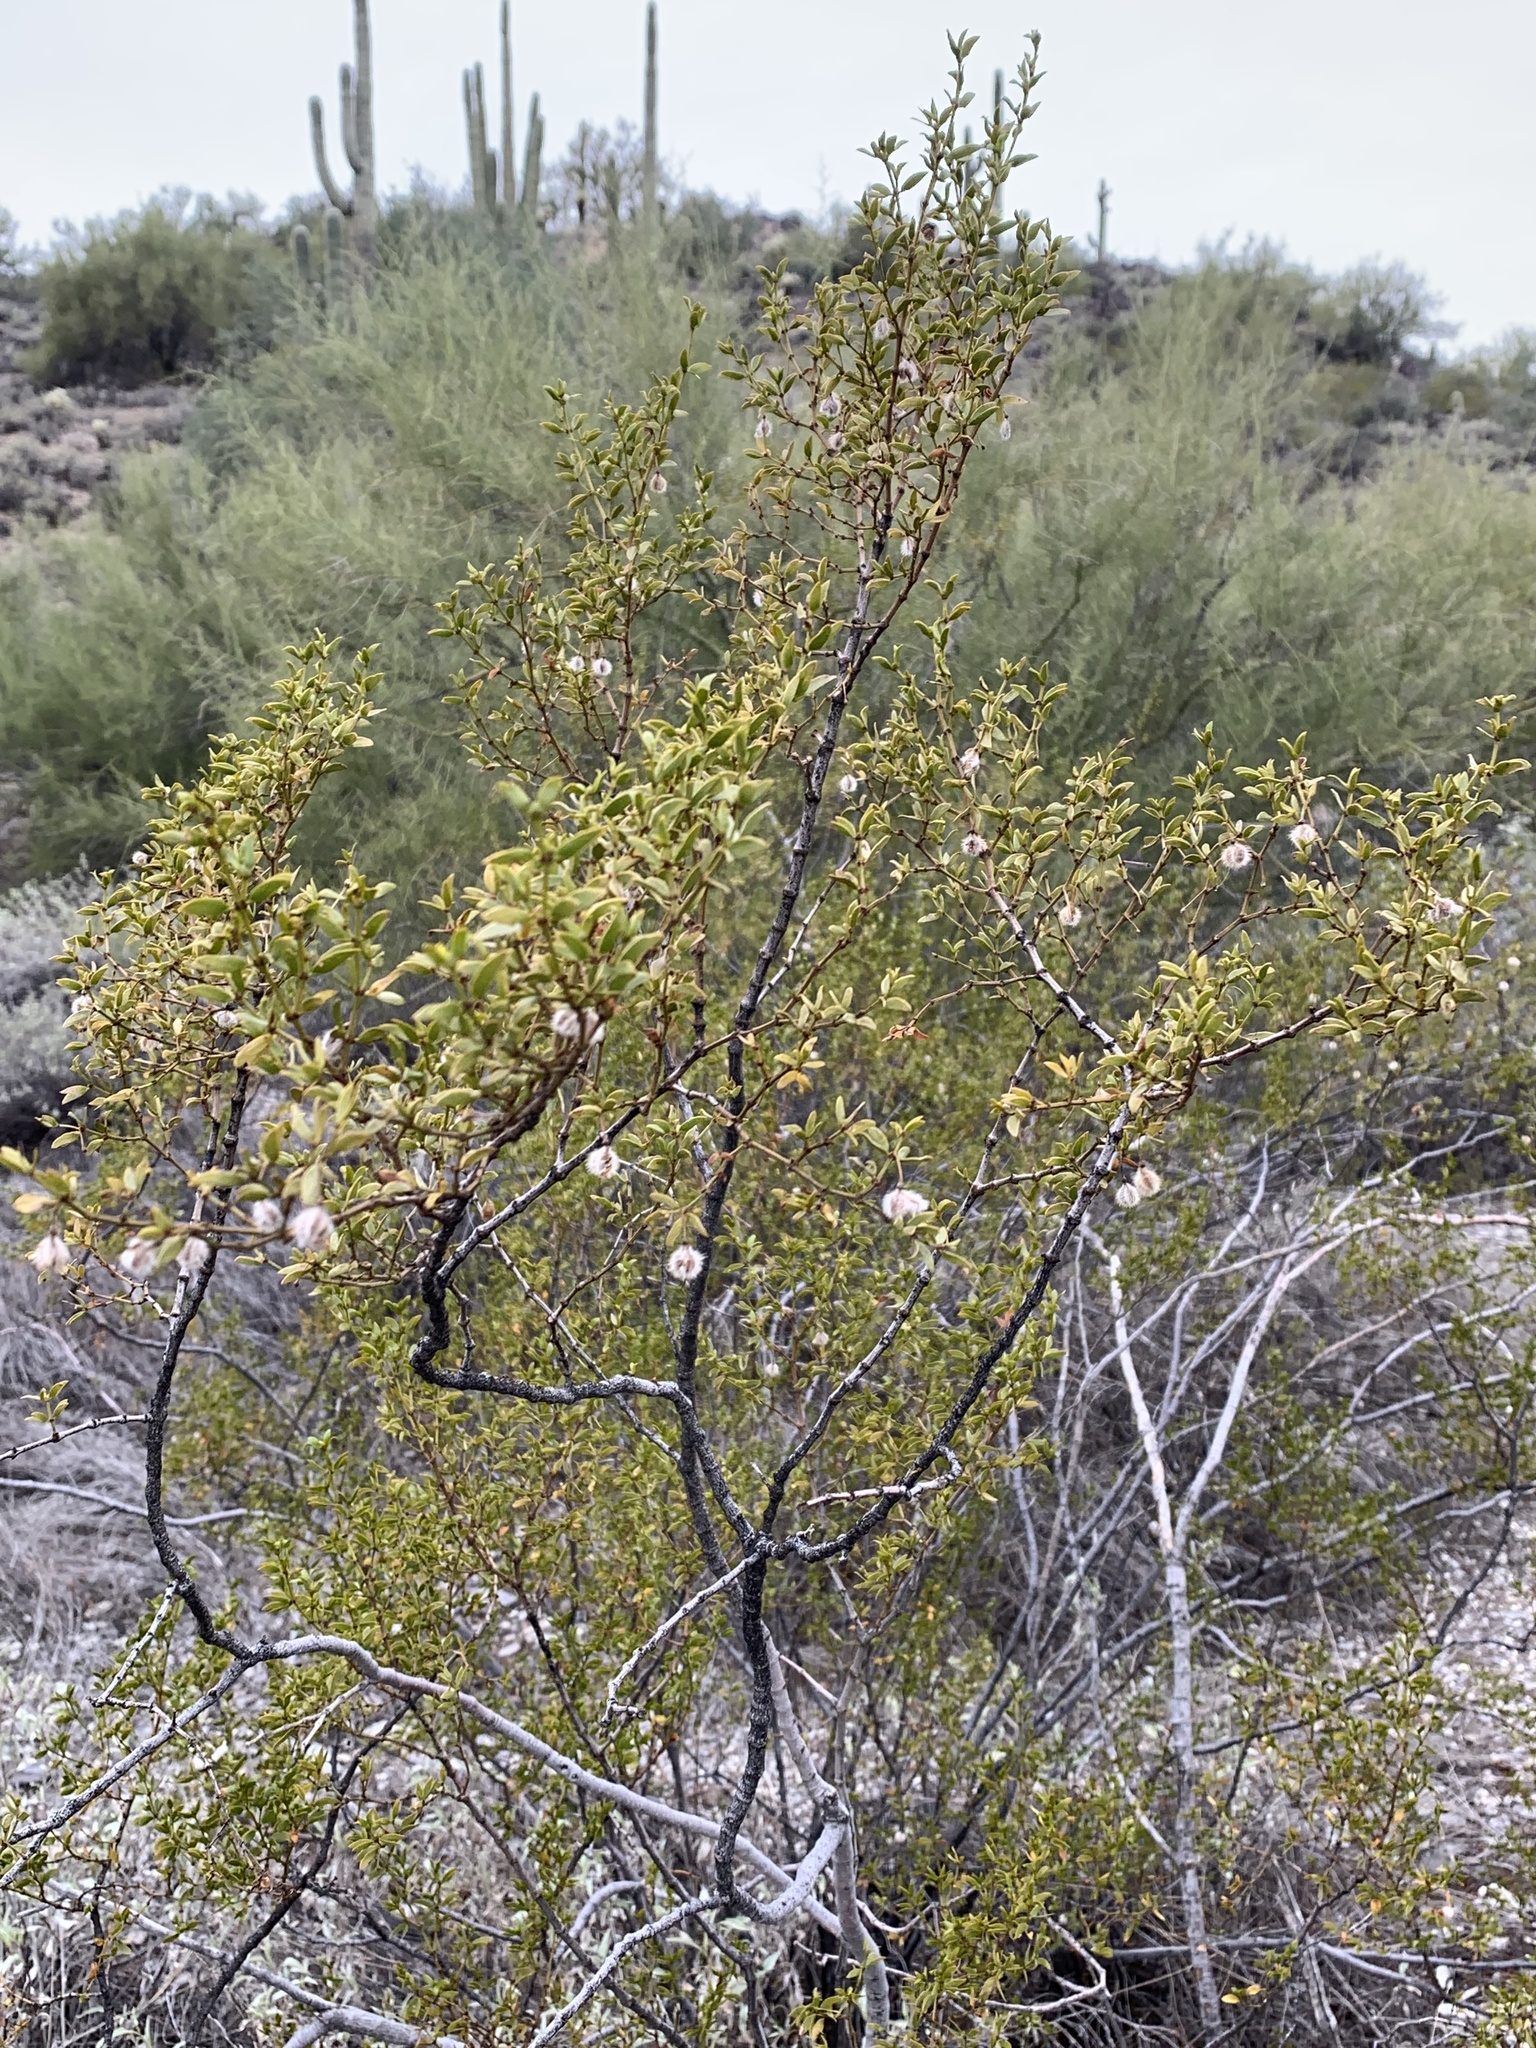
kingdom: Plantae
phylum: Tracheophyta
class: Magnoliopsida
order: Zygophyllales
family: Zygophyllaceae
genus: Larrea
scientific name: Larrea tridentata
